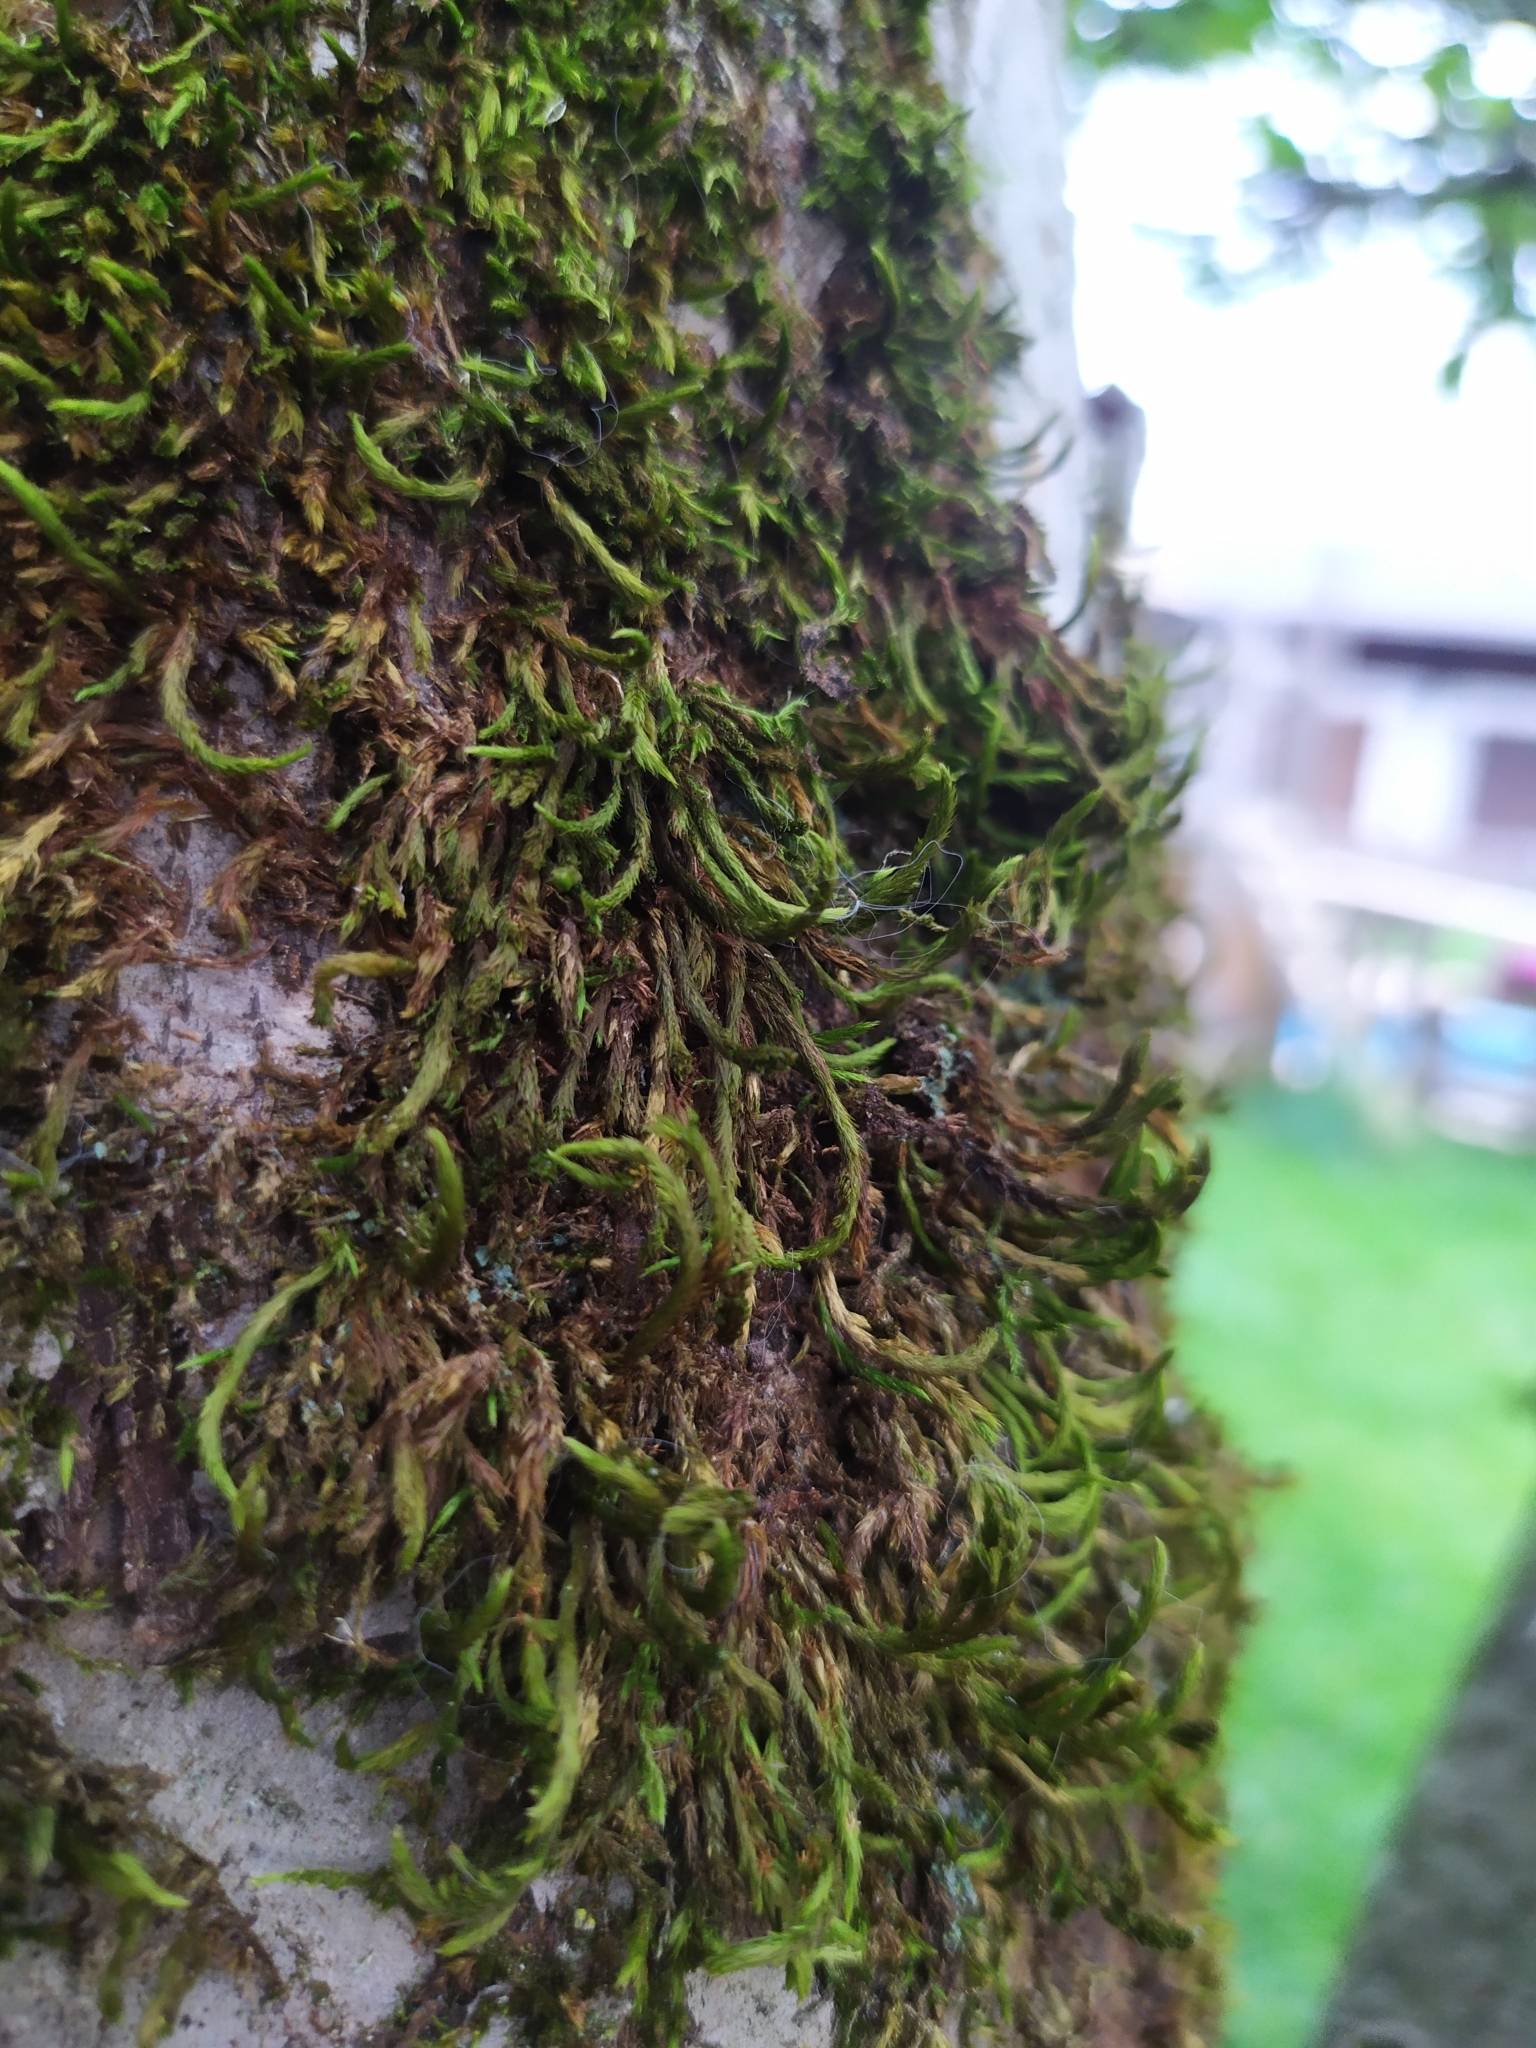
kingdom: Plantae
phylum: Bryophyta
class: Bryopsida
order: Hypnales
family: Leucodontaceae
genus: Leucodon
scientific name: Leucodon sciuroides
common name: Squirrel-tail moss
